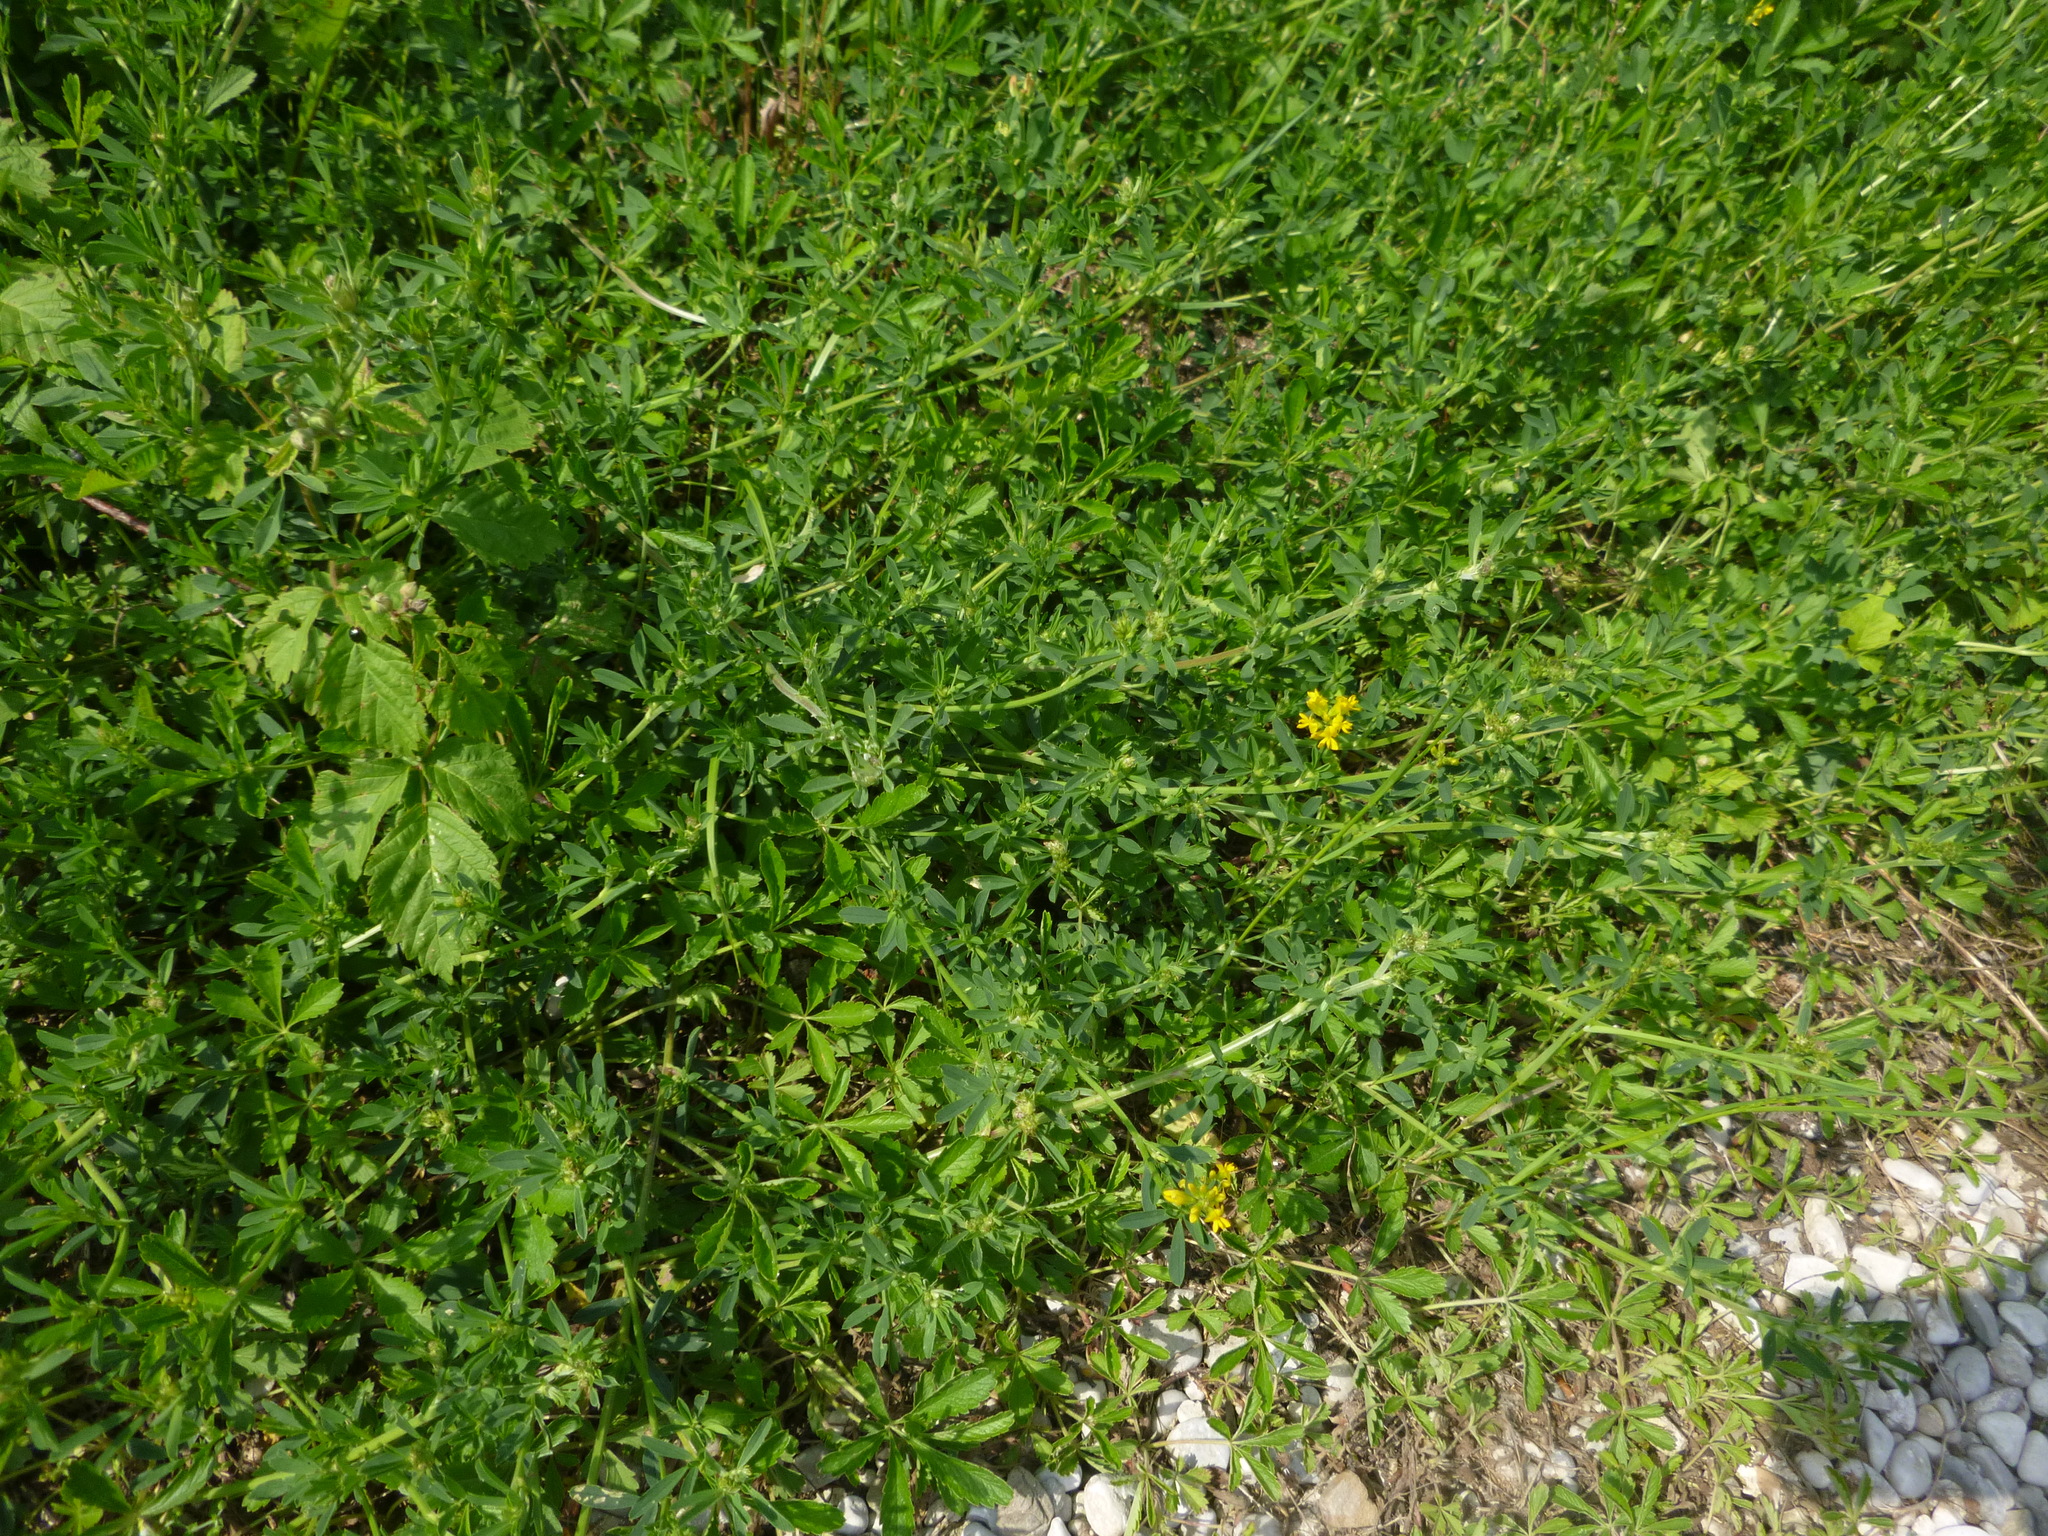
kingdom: Plantae
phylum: Tracheophyta
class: Magnoliopsida
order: Fabales
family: Fabaceae
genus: Medicago
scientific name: Medicago falcata
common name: Sickle medick
